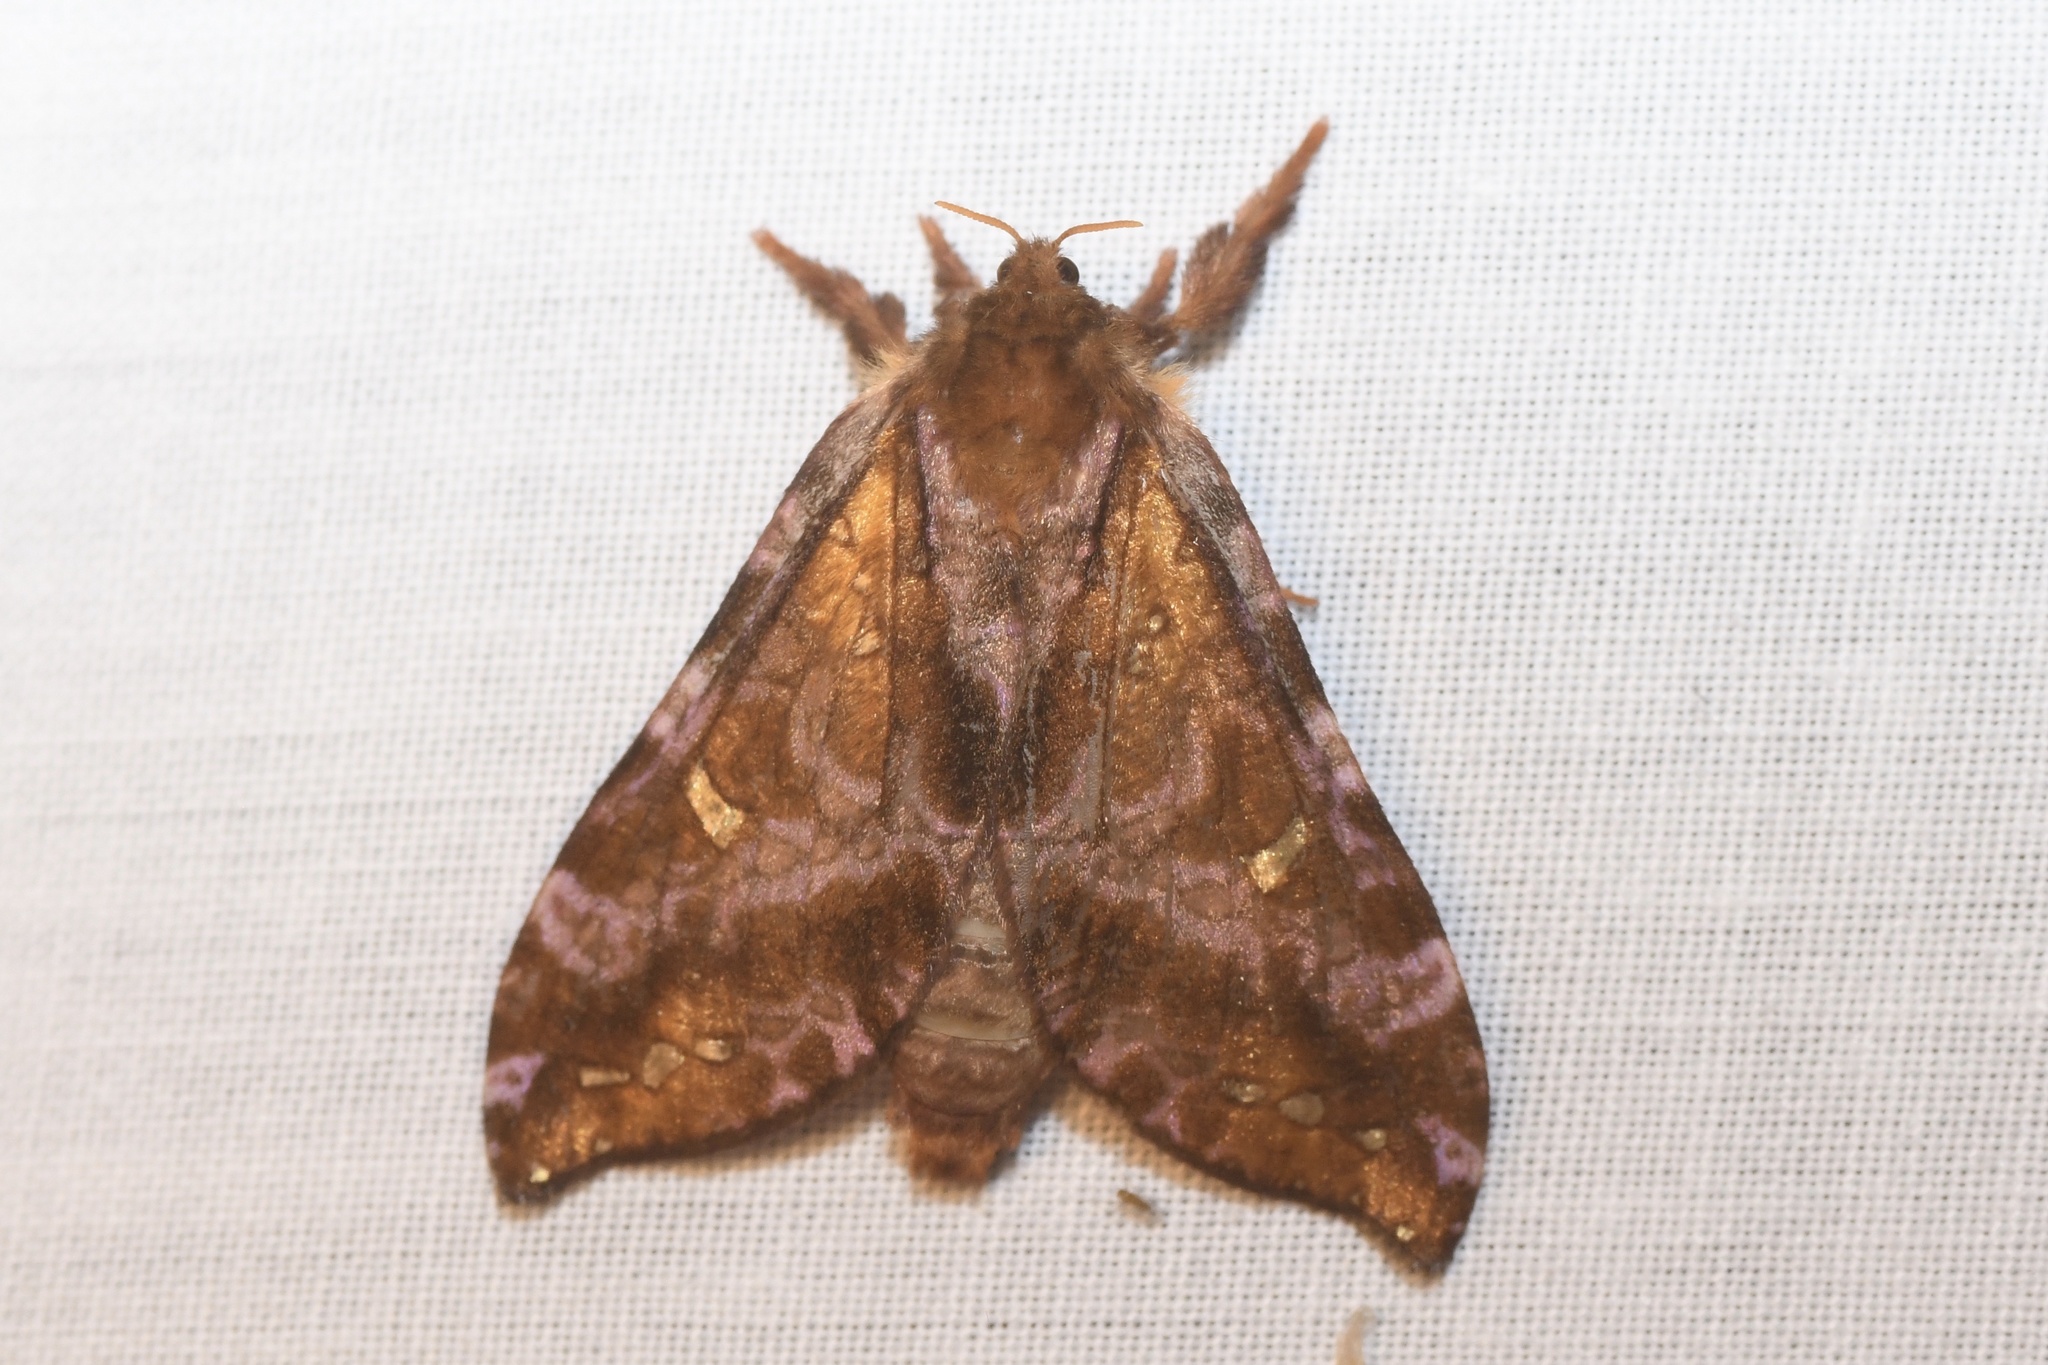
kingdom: Animalia
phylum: Arthropoda
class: Insecta
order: Lepidoptera
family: Hepialidae
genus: Sthenopis
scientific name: Sthenopis pretiosus
